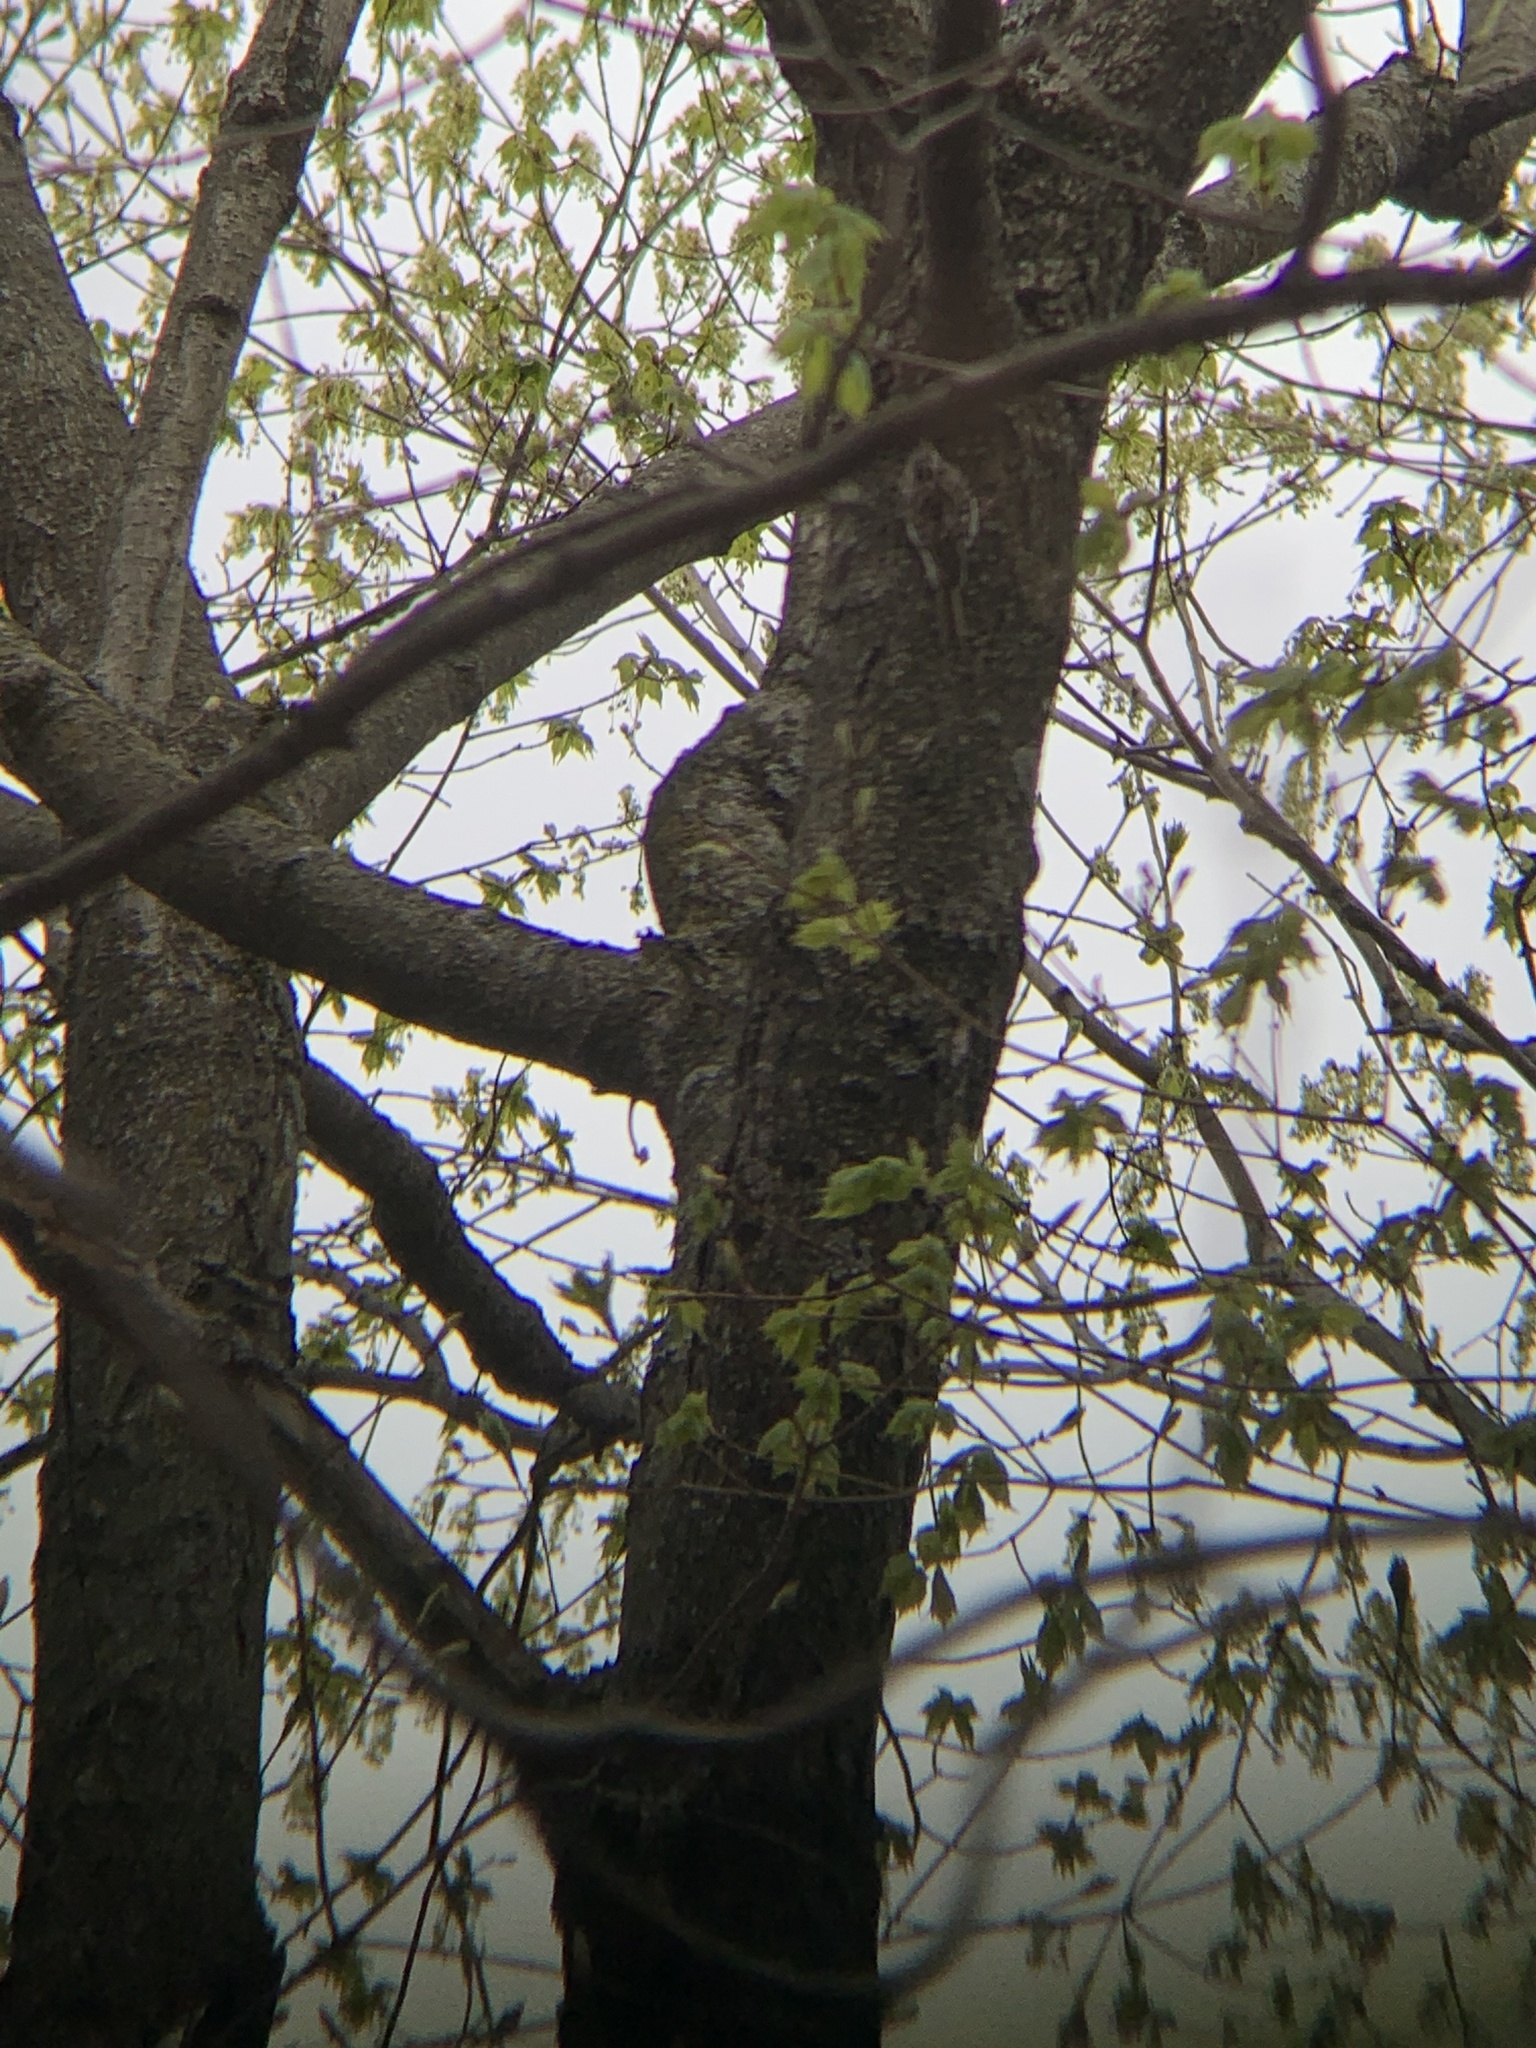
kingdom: Animalia
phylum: Chordata
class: Aves
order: Passeriformes
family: Certhiidae
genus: Certhia
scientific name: Certhia americana
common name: Brown creeper
